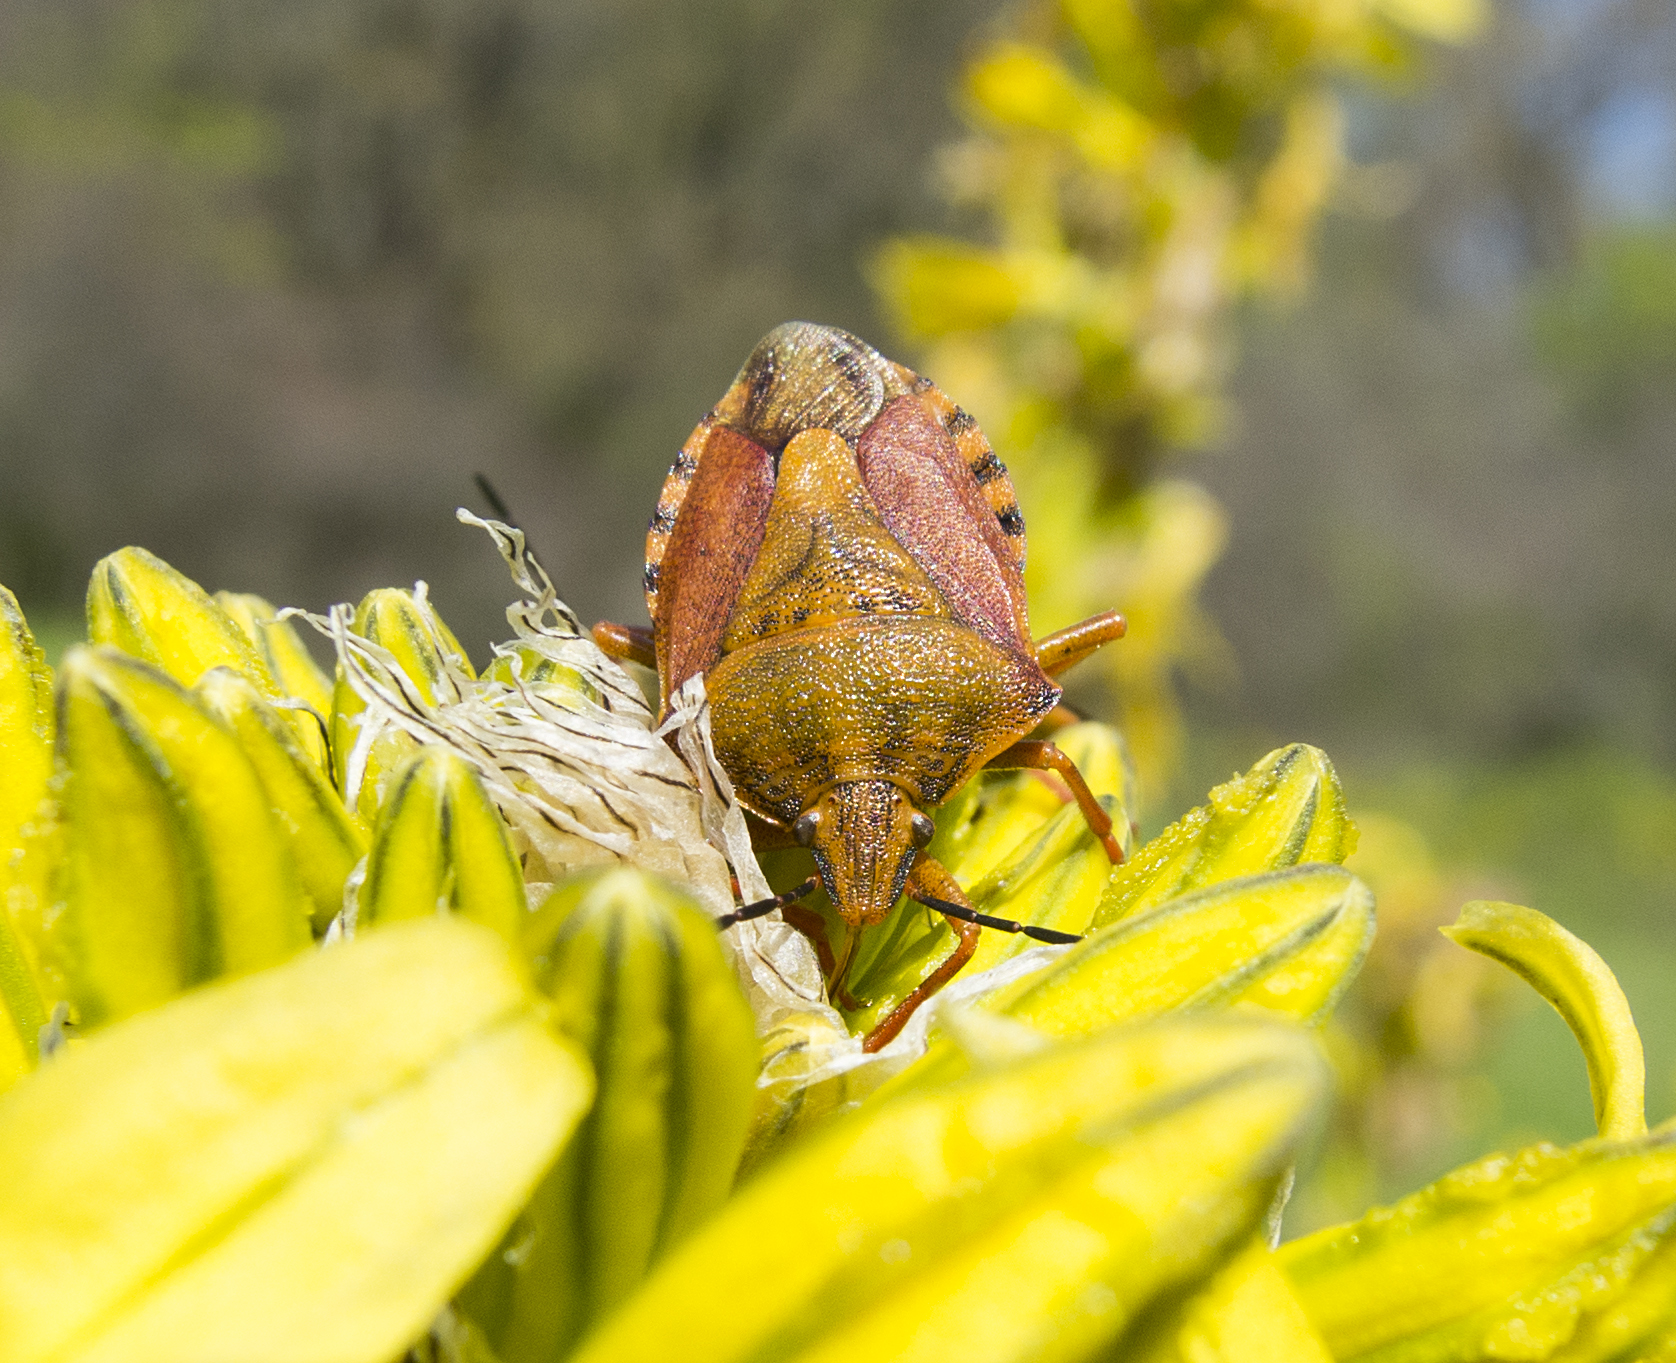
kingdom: Animalia
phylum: Arthropoda
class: Insecta
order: Hemiptera
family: Pentatomidae
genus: Carpocoris
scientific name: Carpocoris purpureipennis
